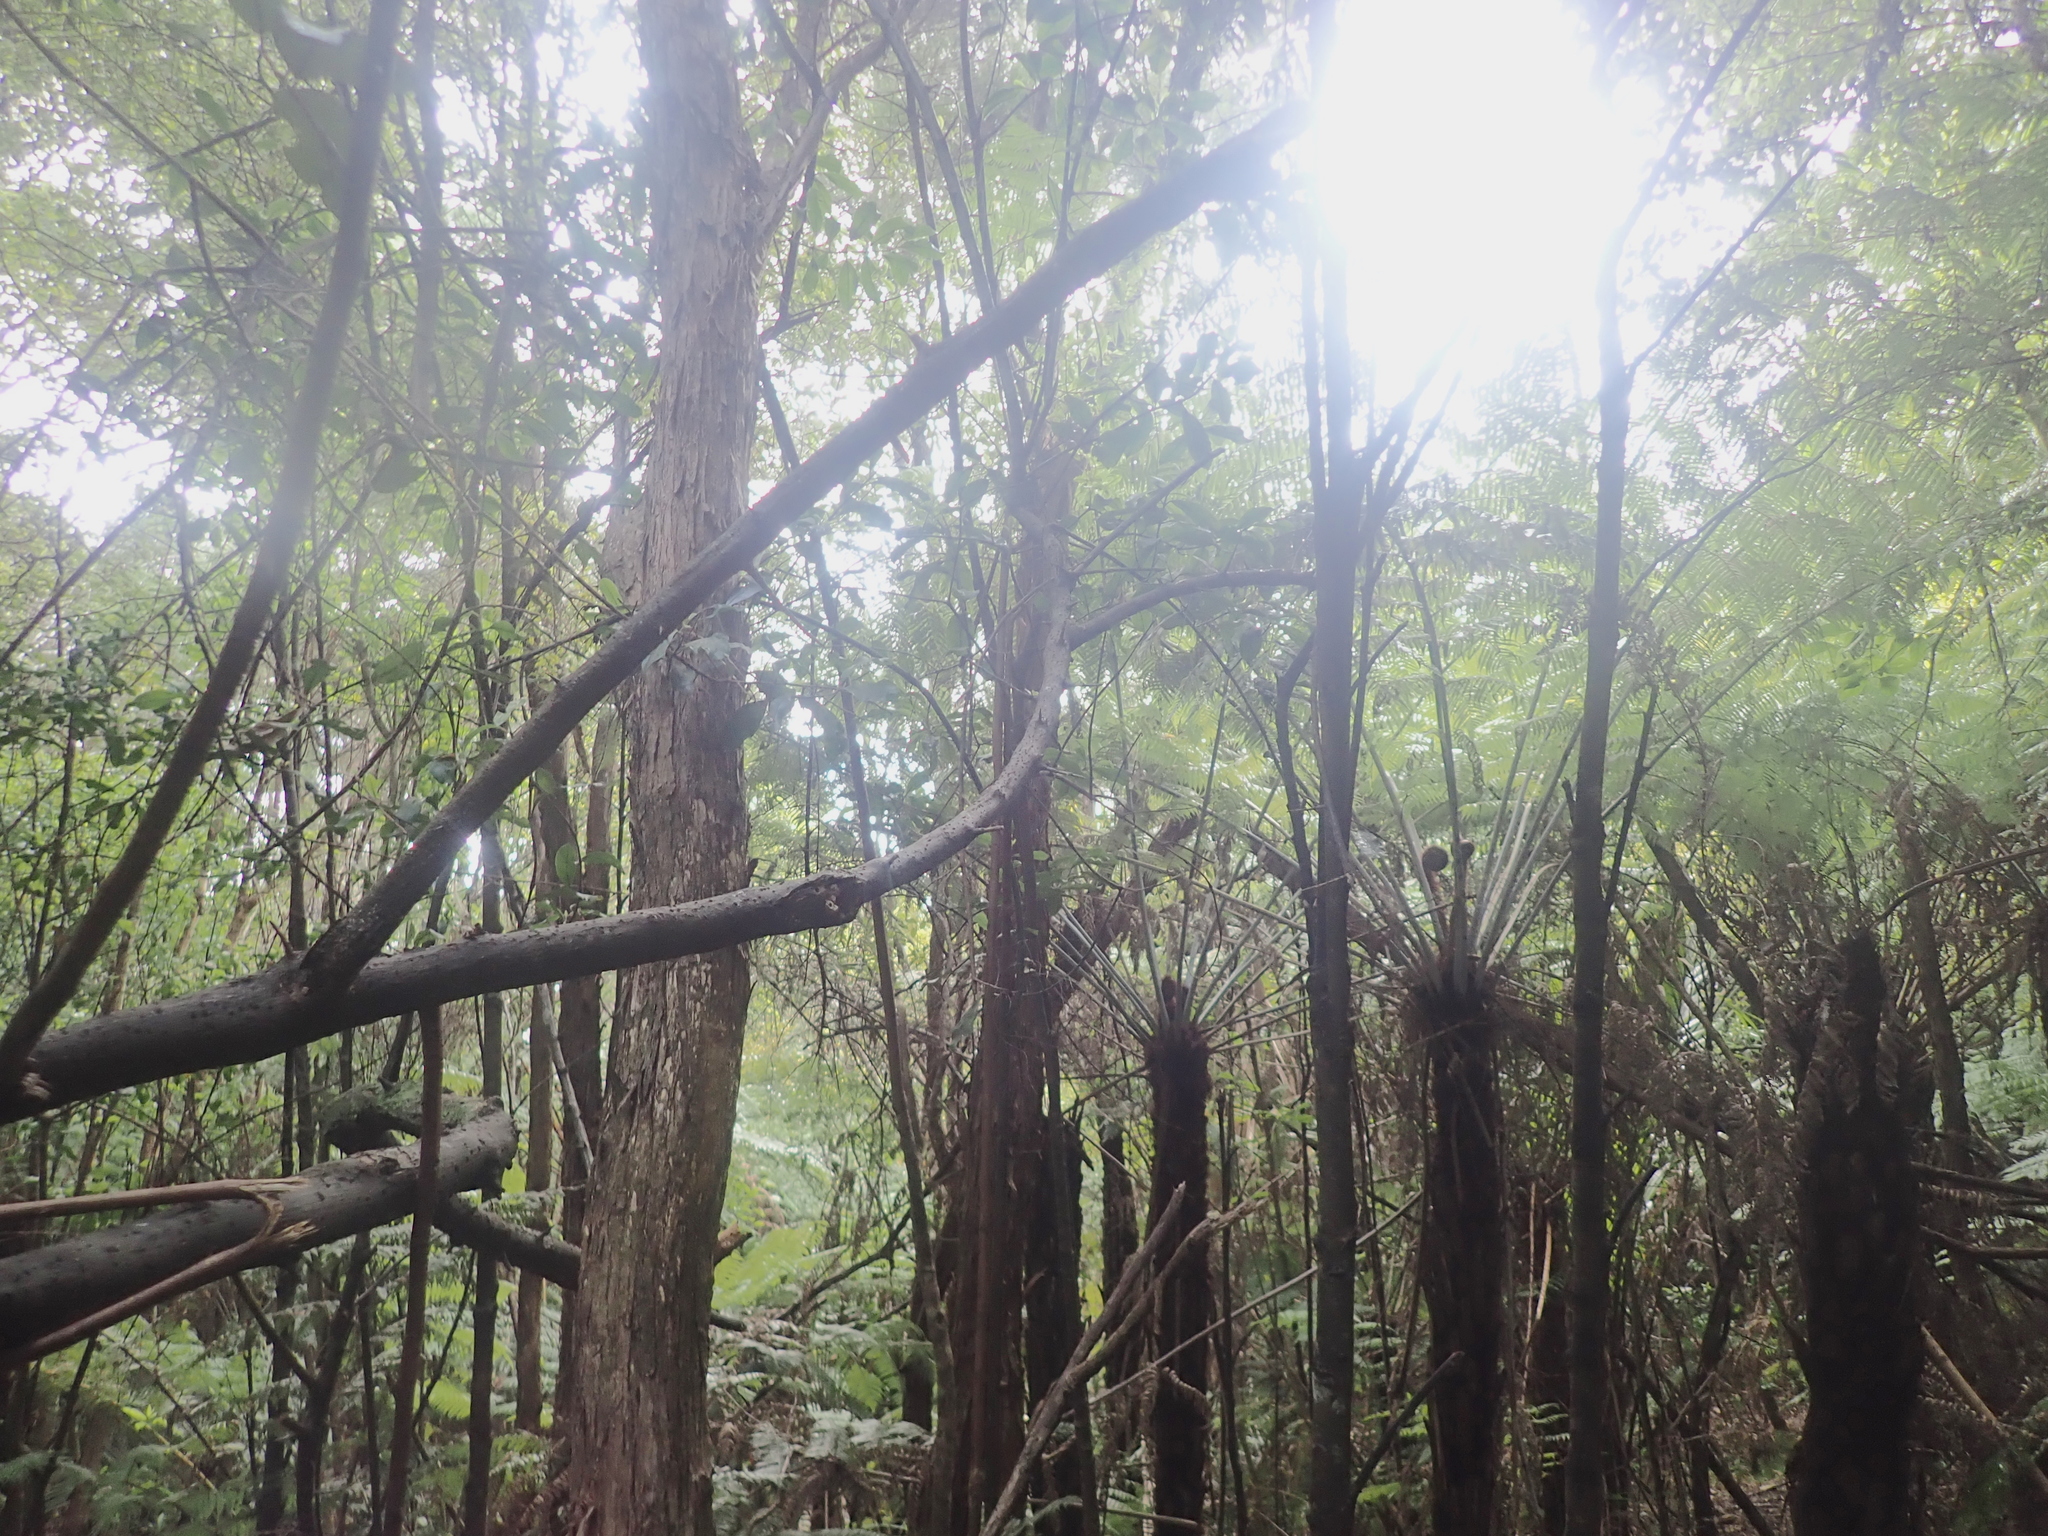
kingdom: Plantae
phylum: Tracheophyta
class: Magnoliopsida
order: Rosales
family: Elaeagnaceae
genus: Elaeagnus
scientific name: Elaeagnus reflexa
